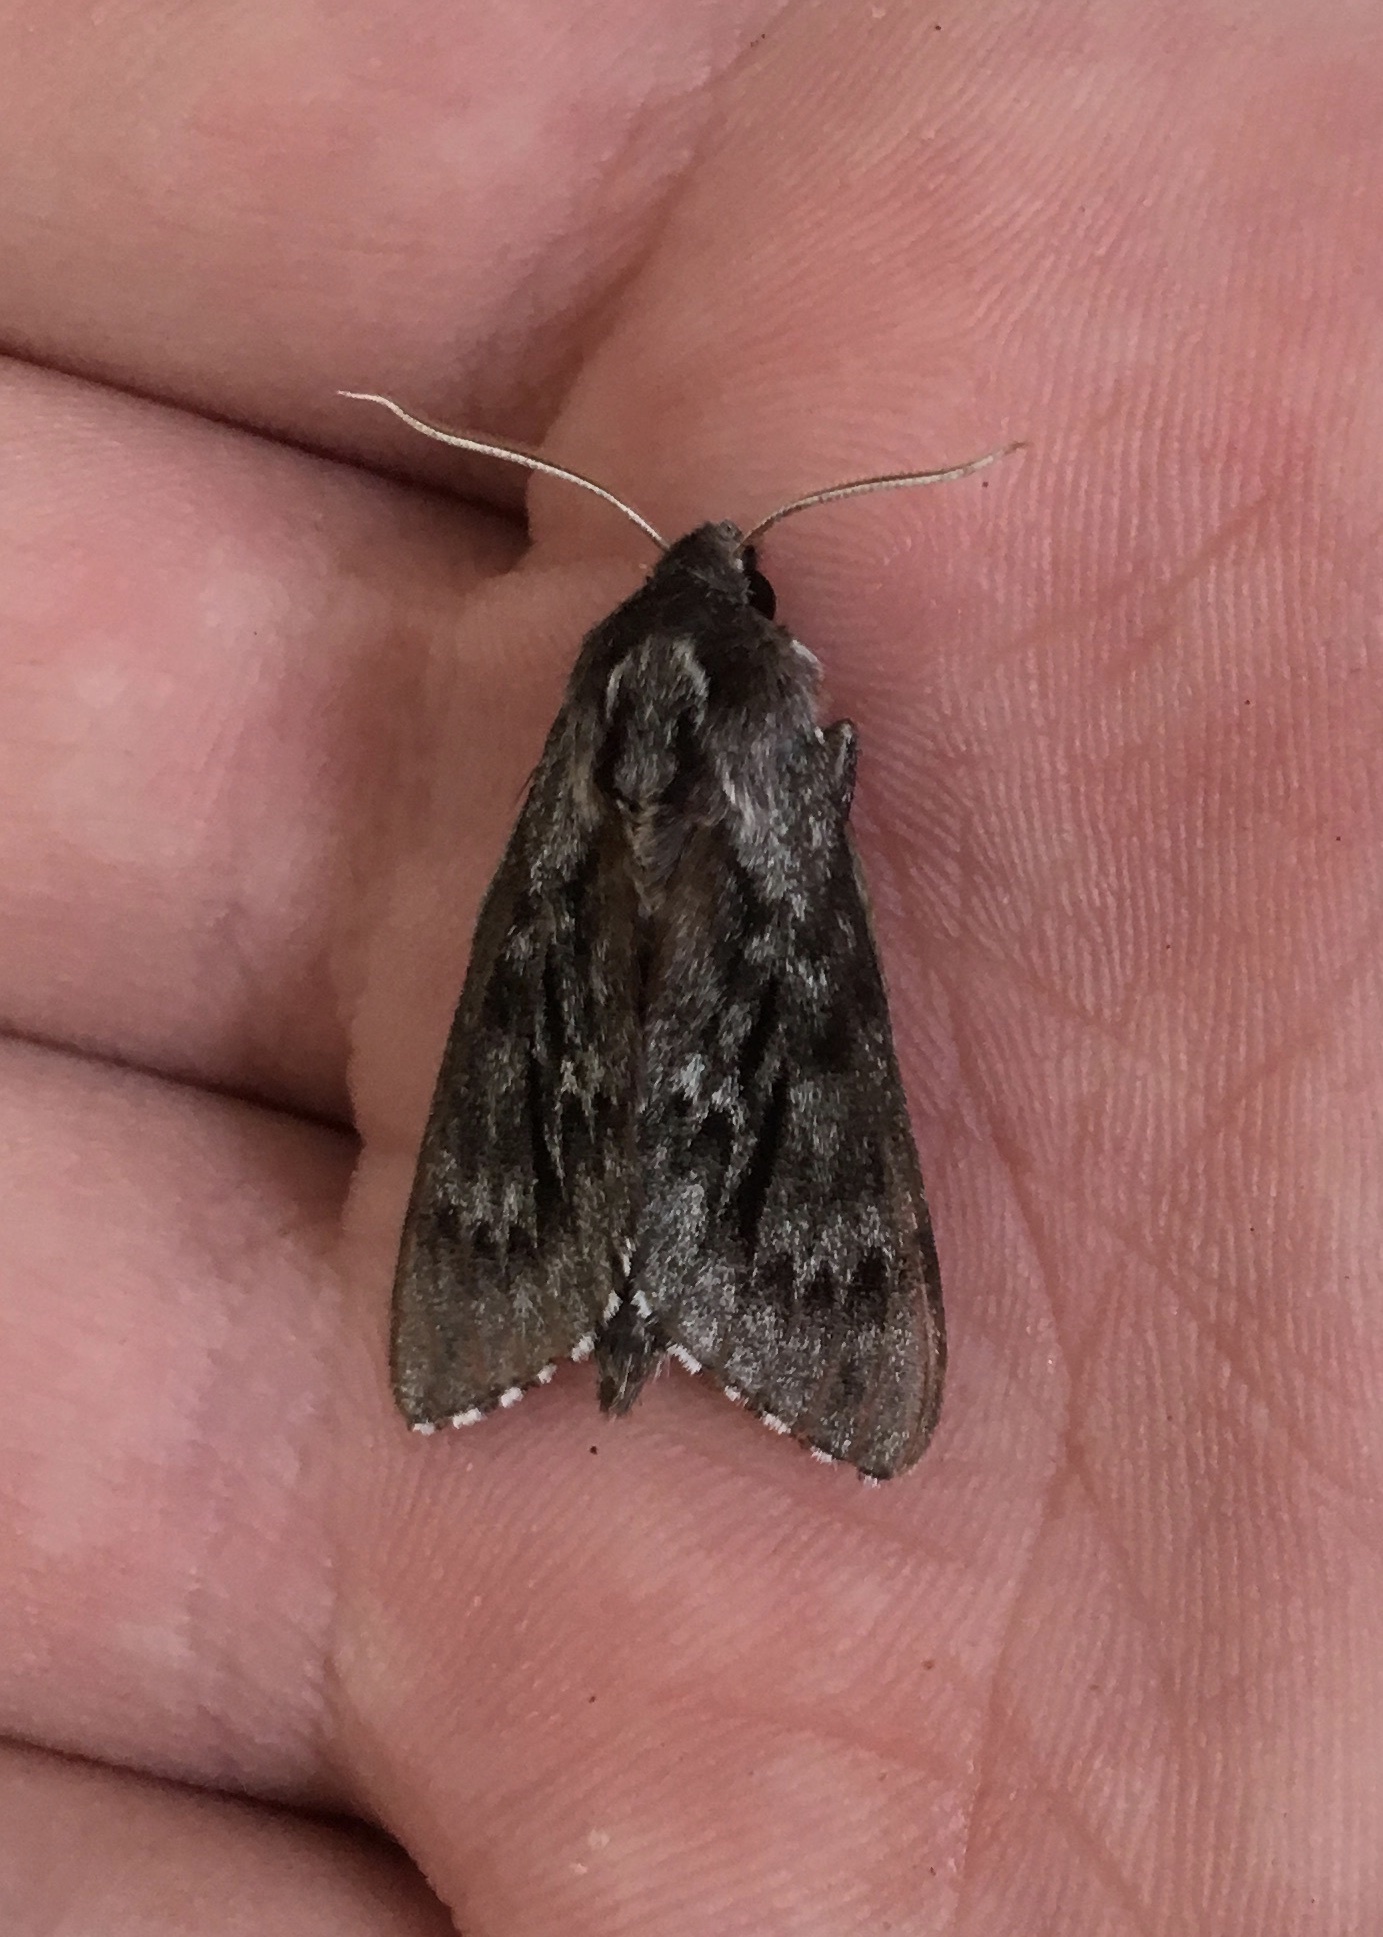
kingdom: Animalia
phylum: Arthropoda
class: Insecta
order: Lepidoptera
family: Sphingidae
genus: Lapara
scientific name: Lapara bombycoides
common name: Northern pine sphinx
